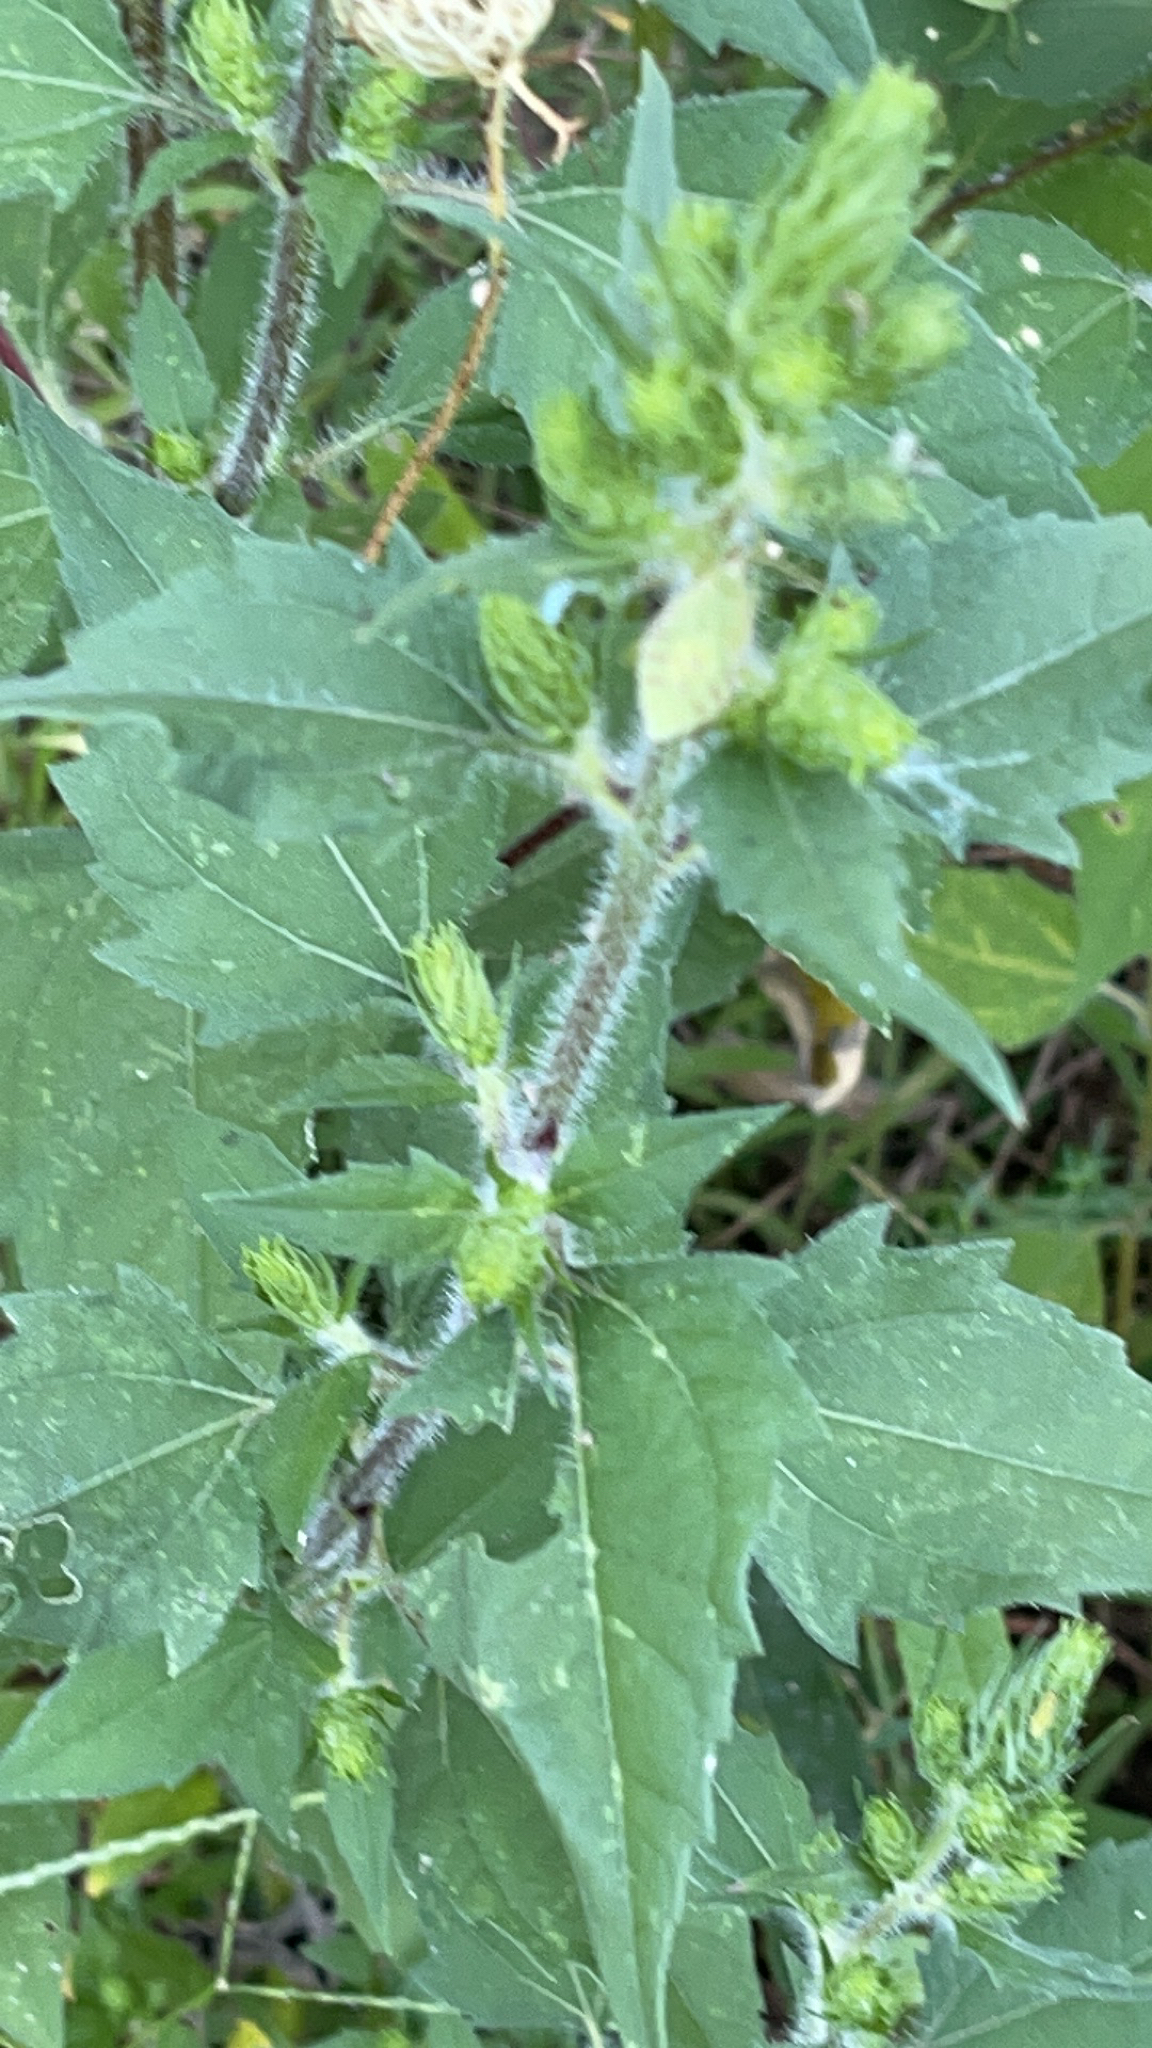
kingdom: Plantae
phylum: Tracheophyta
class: Magnoliopsida
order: Asterales
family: Asteraceae
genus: Iva
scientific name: Iva annua
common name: Marsh-elder
